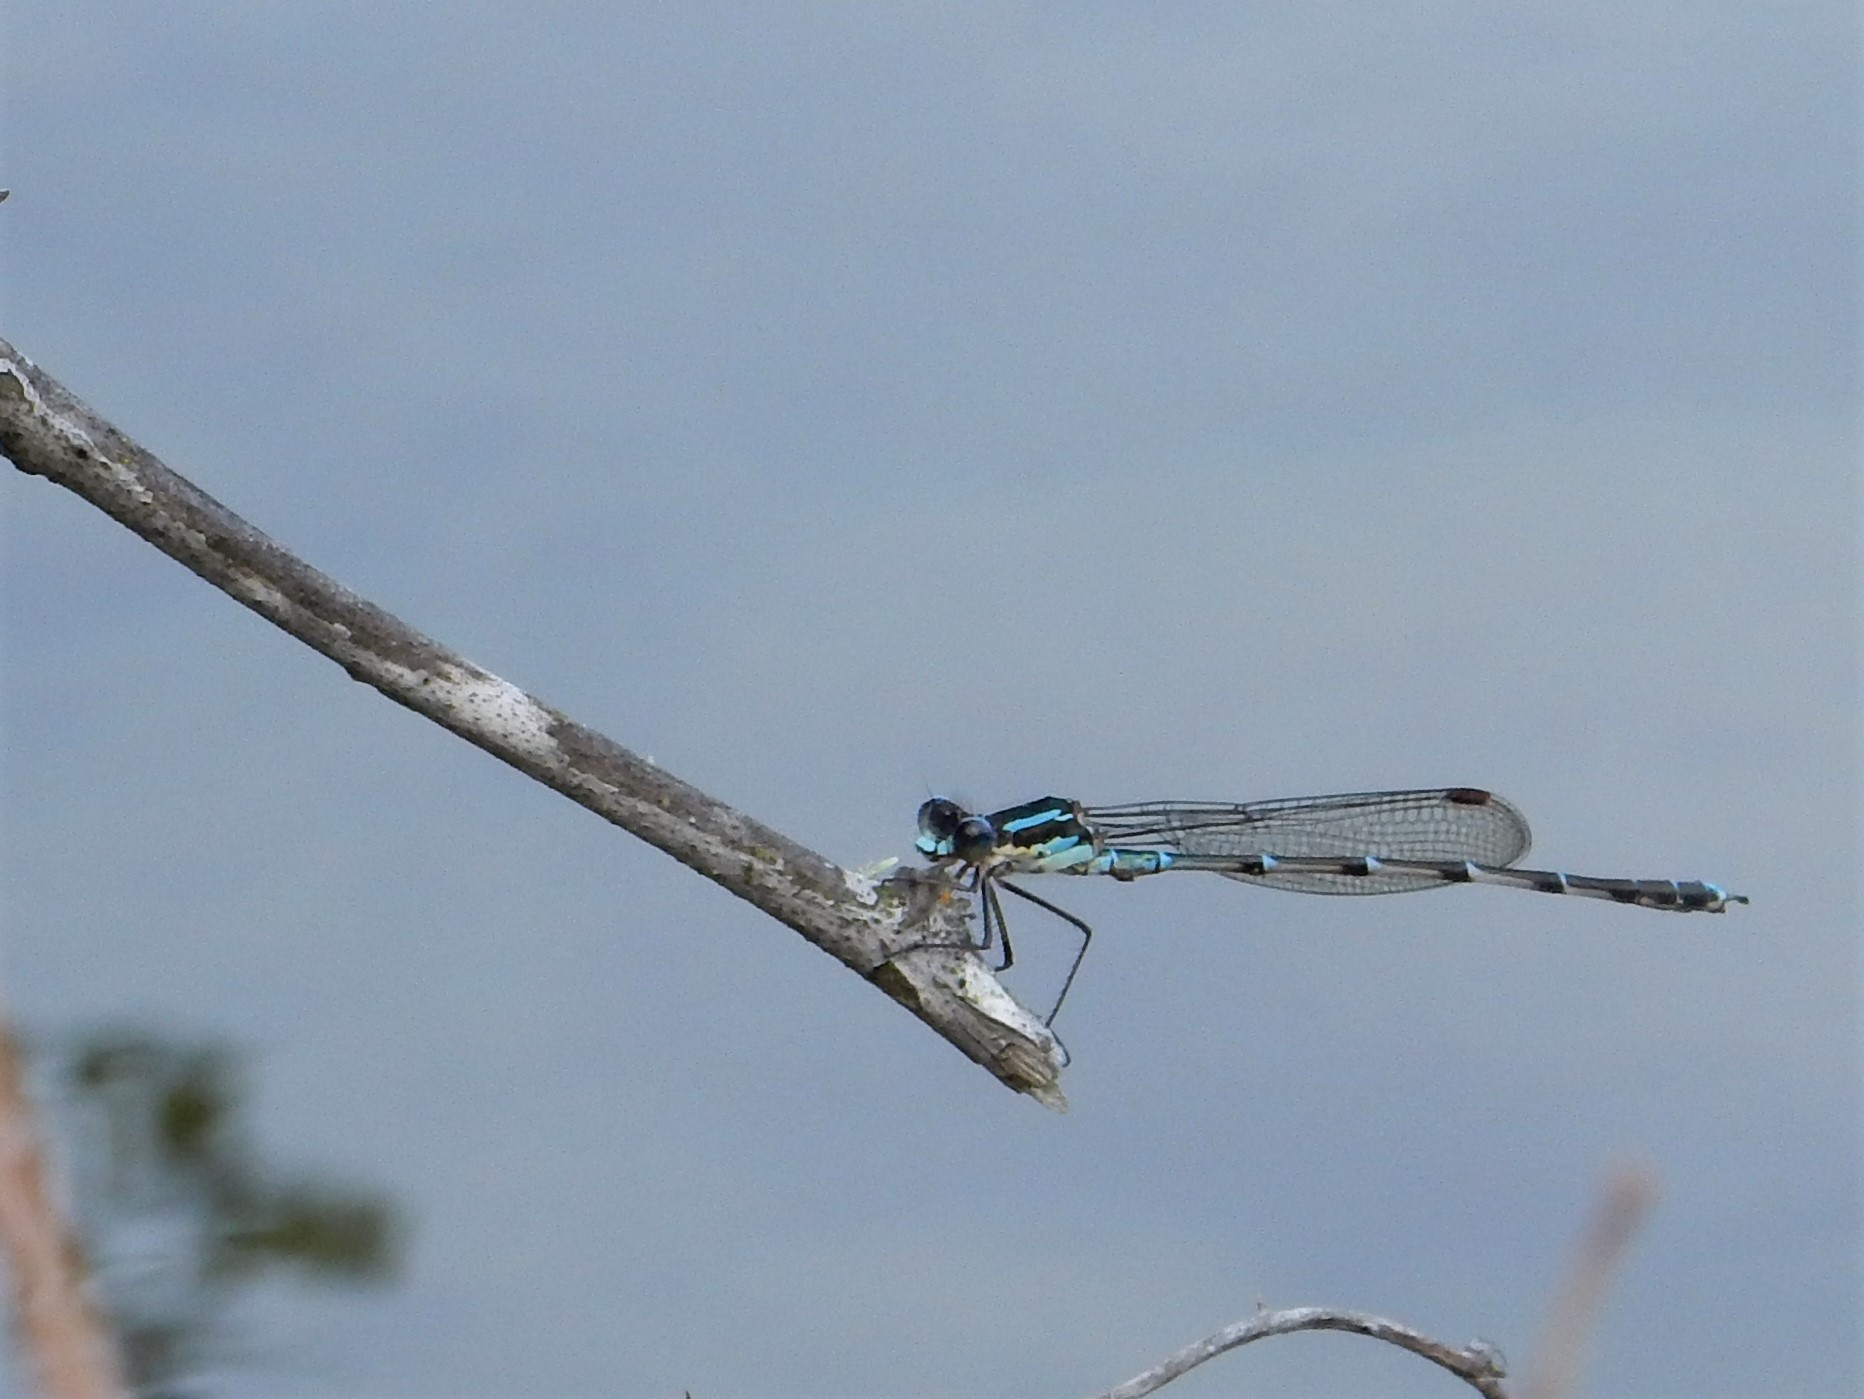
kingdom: Animalia
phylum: Arthropoda
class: Insecta
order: Odonata
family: Lestidae
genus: Austrolestes
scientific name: Austrolestes colensonis
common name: Blue damselfly
